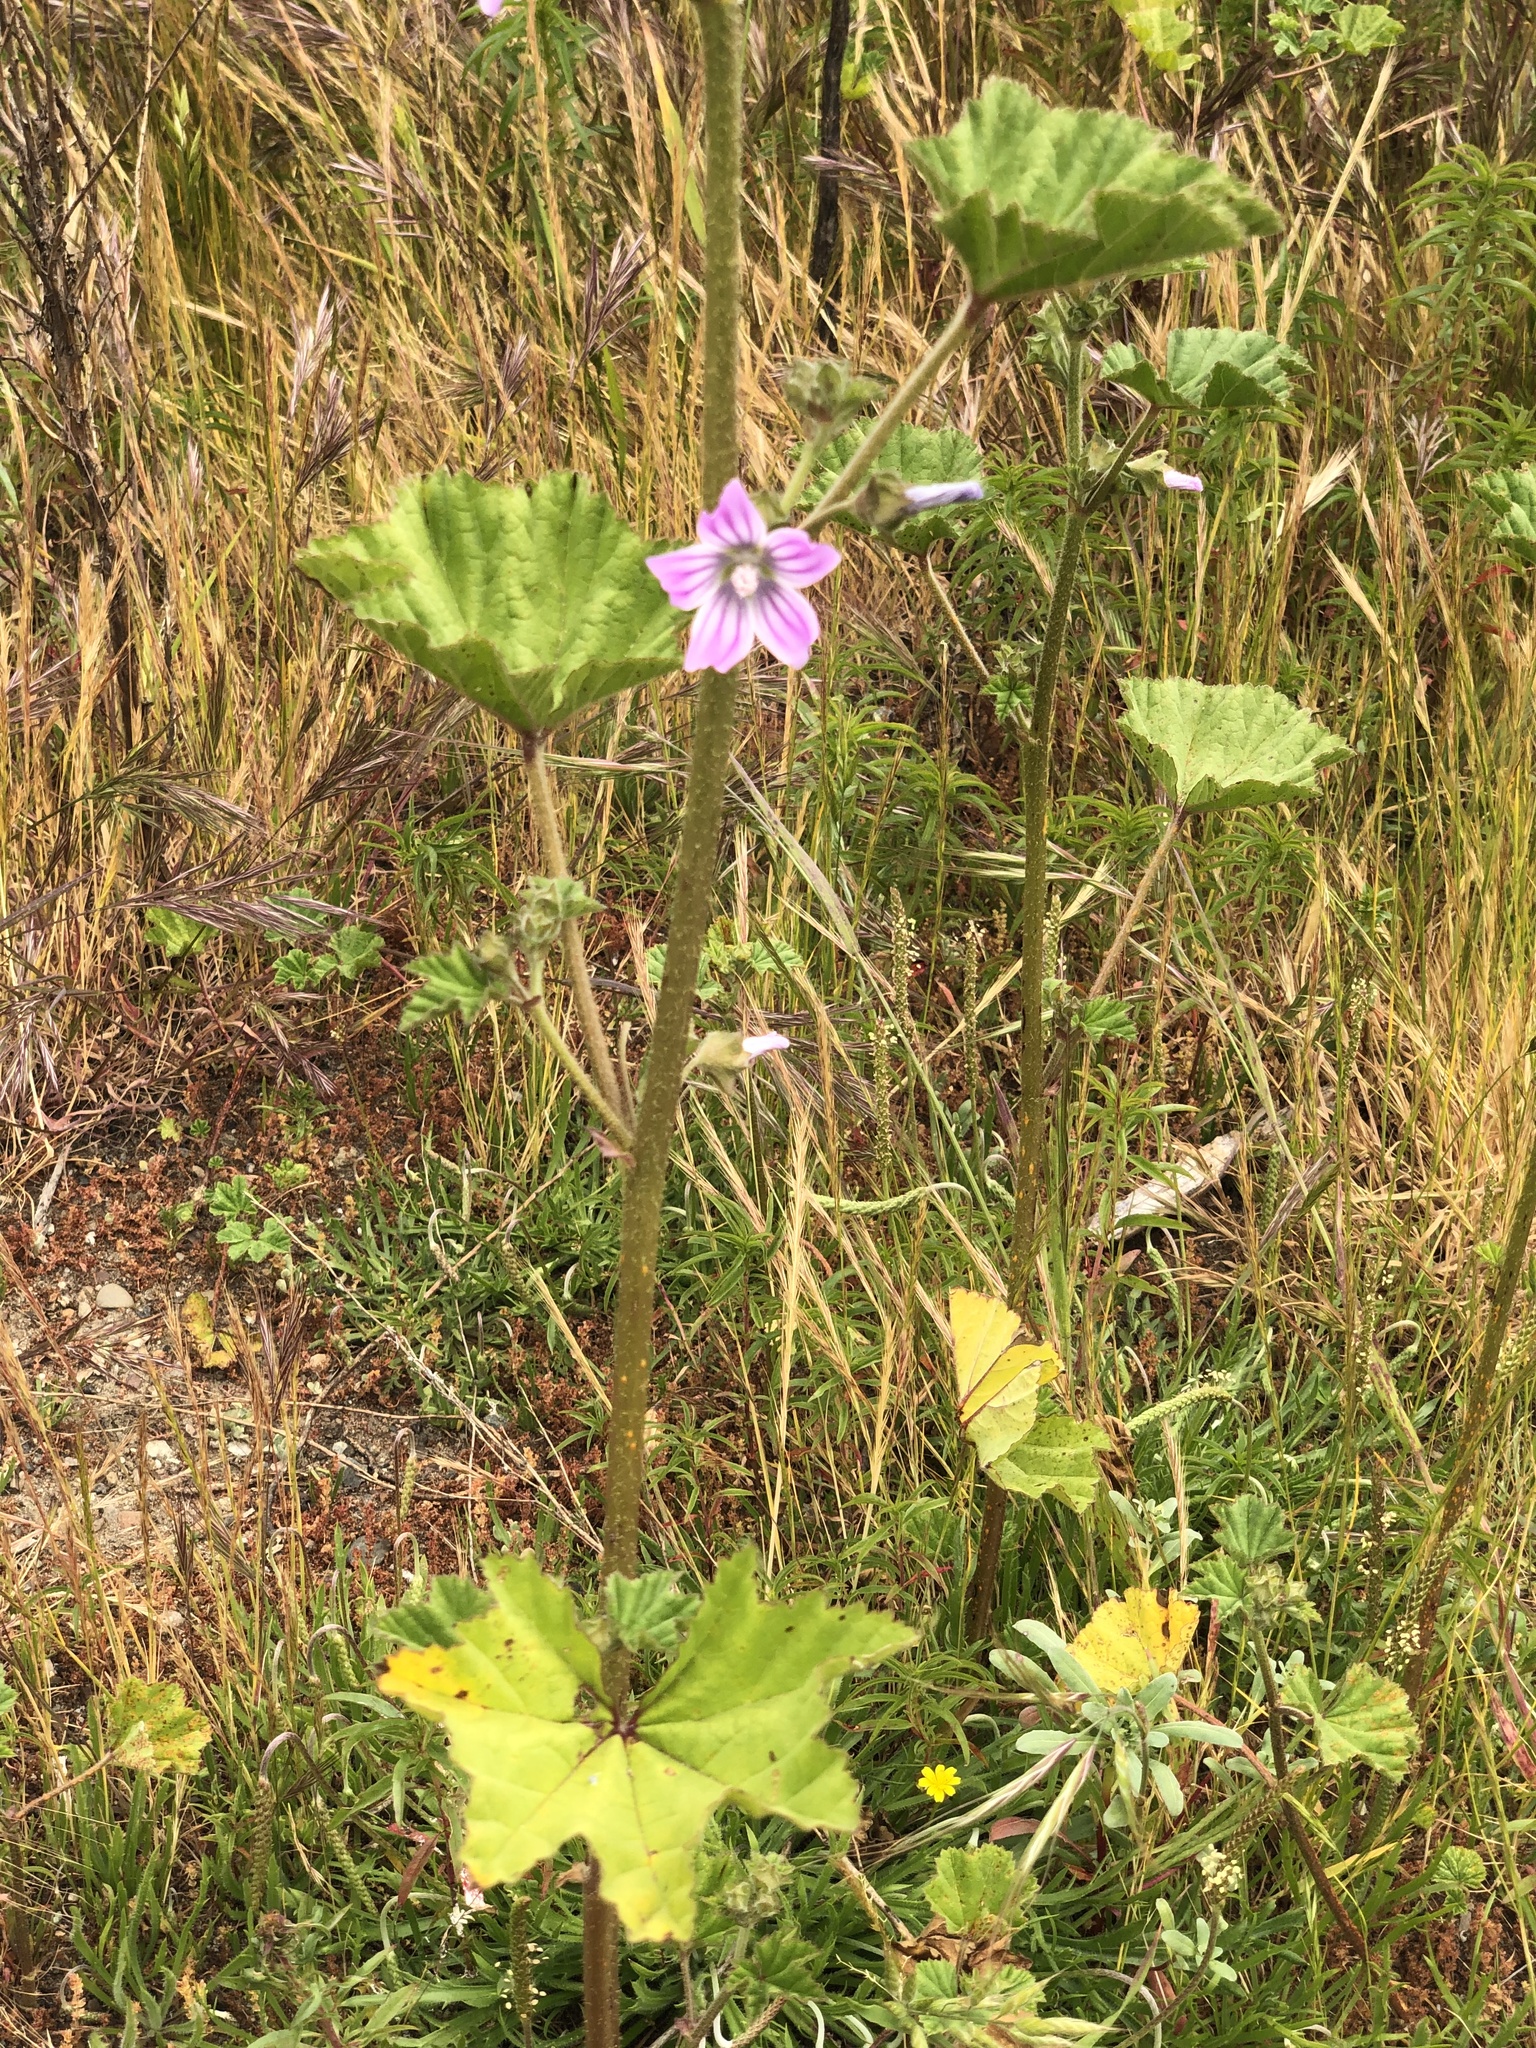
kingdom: Plantae
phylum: Tracheophyta
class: Magnoliopsida
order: Malvales
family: Malvaceae
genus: Malva
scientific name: Malva multiflora
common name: Cheeseweed
